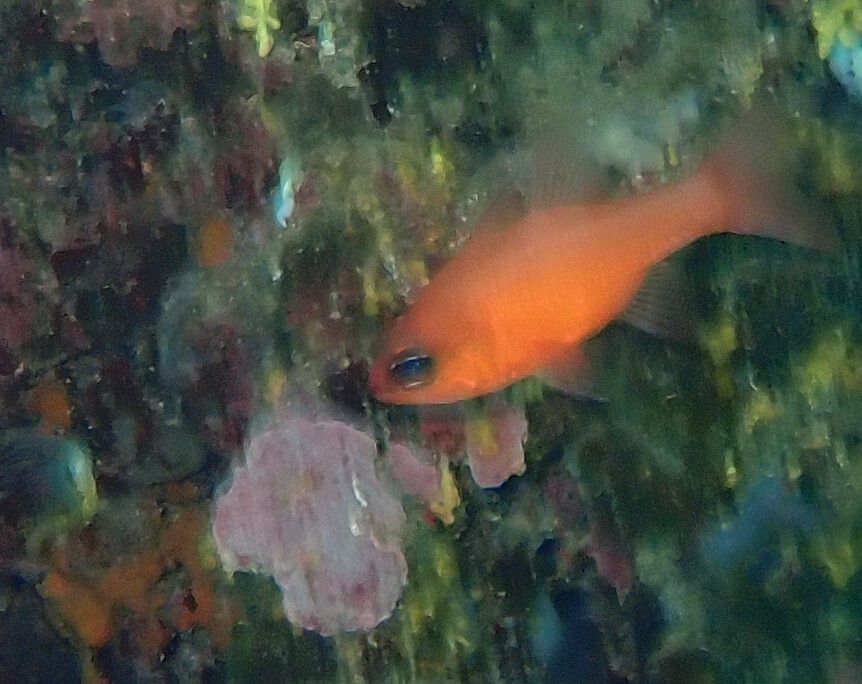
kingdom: Animalia
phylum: Chordata
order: Perciformes
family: Apogonidae
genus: Apogon
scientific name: Apogon imberbis
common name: Cardinal fish
